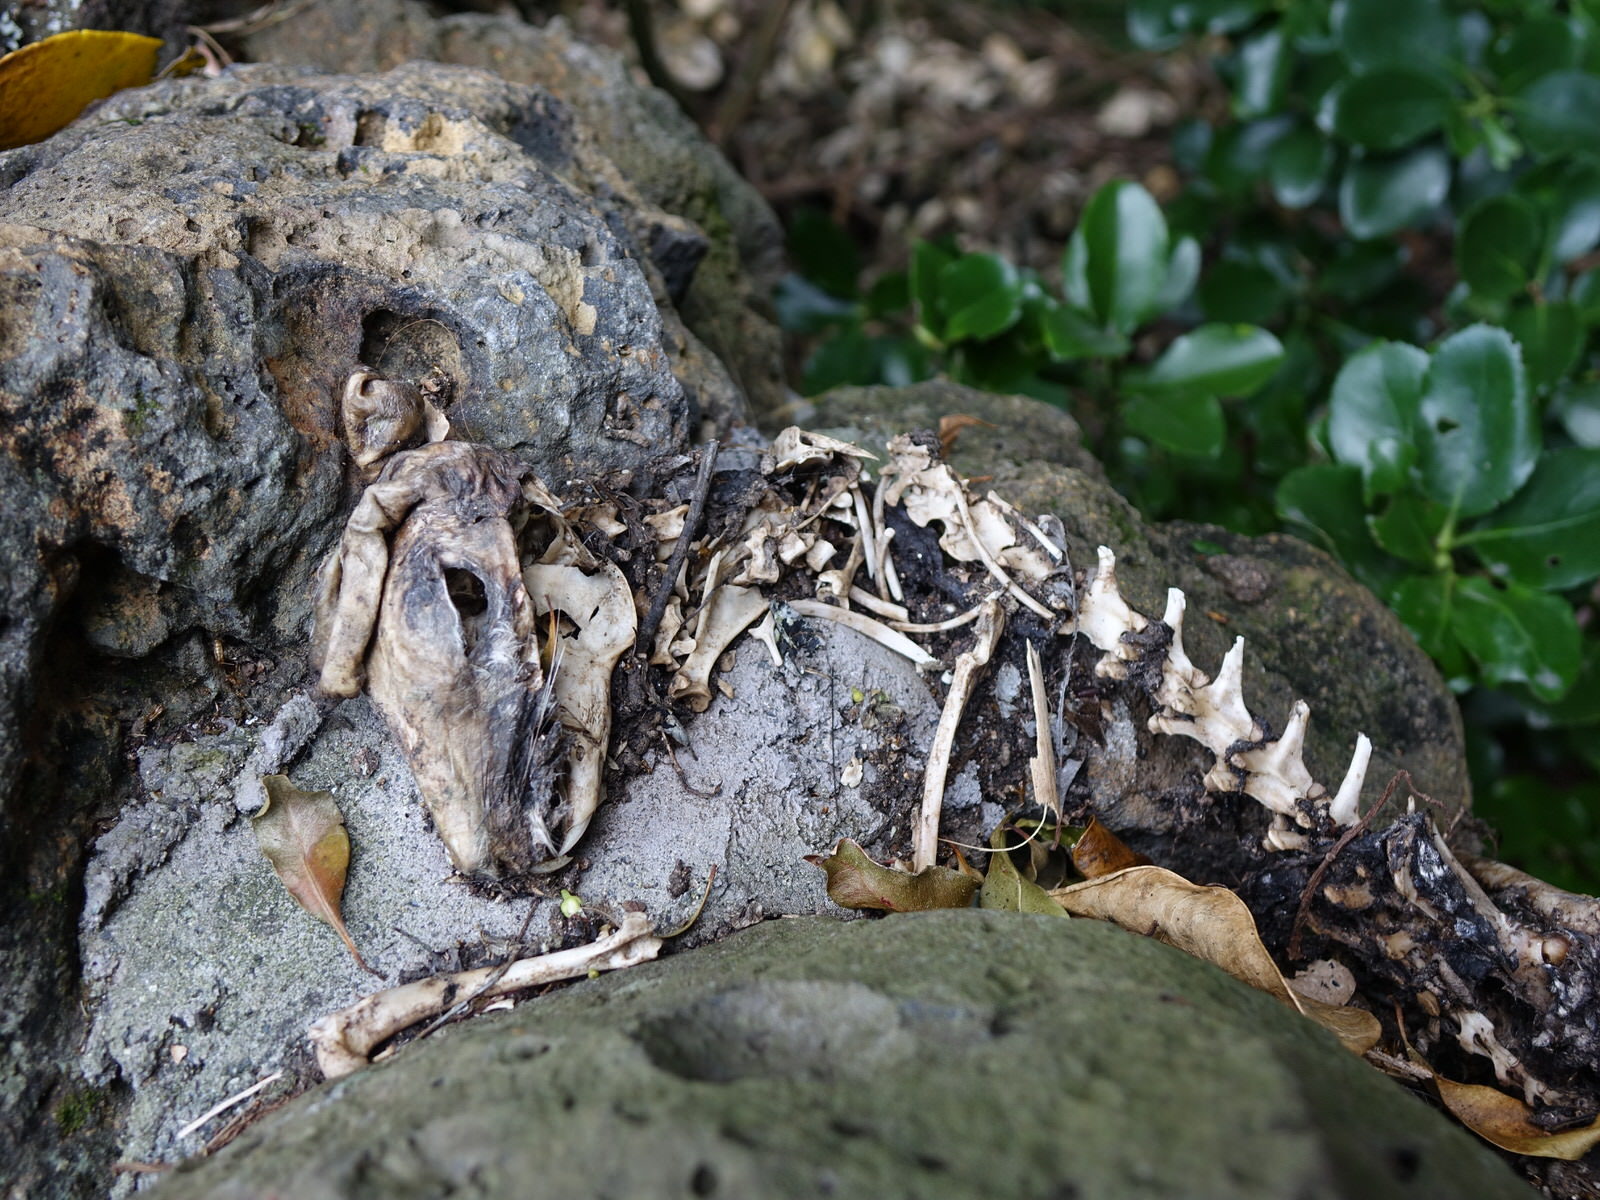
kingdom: Animalia
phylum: Chordata
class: Mammalia
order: Lagomorpha
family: Leporidae
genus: Oryctolagus
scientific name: Oryctolagus cuniculus
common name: European rabbit
